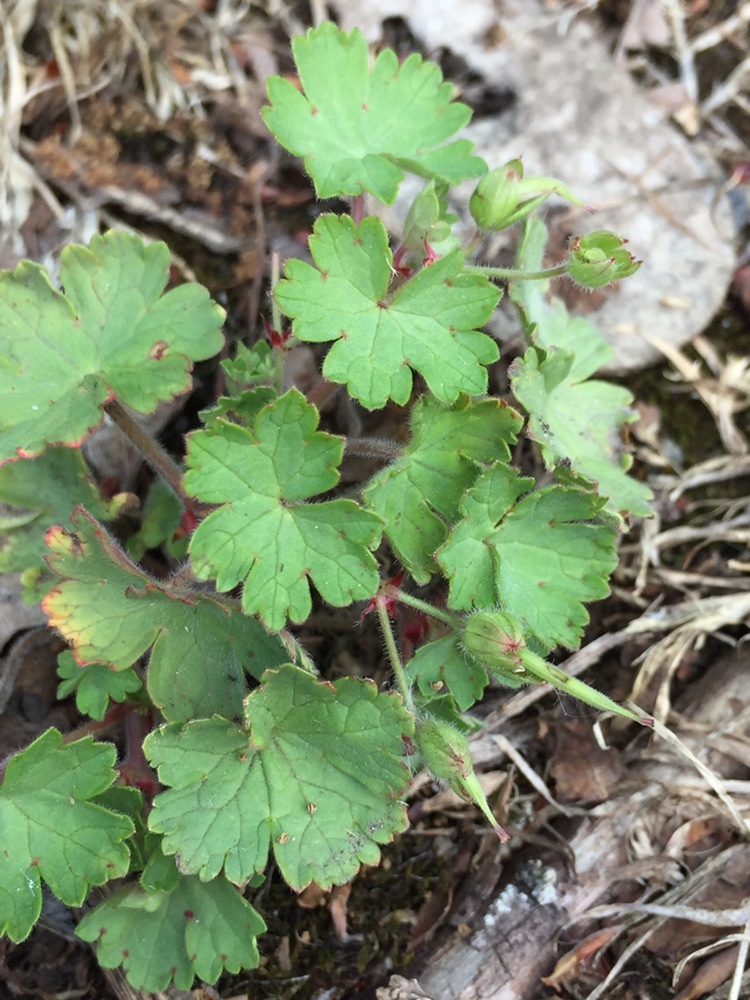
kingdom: Plantae
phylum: Tracheophyta
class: Magnoliopsida
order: Geraniales
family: Geraniaceae
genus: Geranium
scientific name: Geranium rotundifolium
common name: Round-leaved crane's-bill
